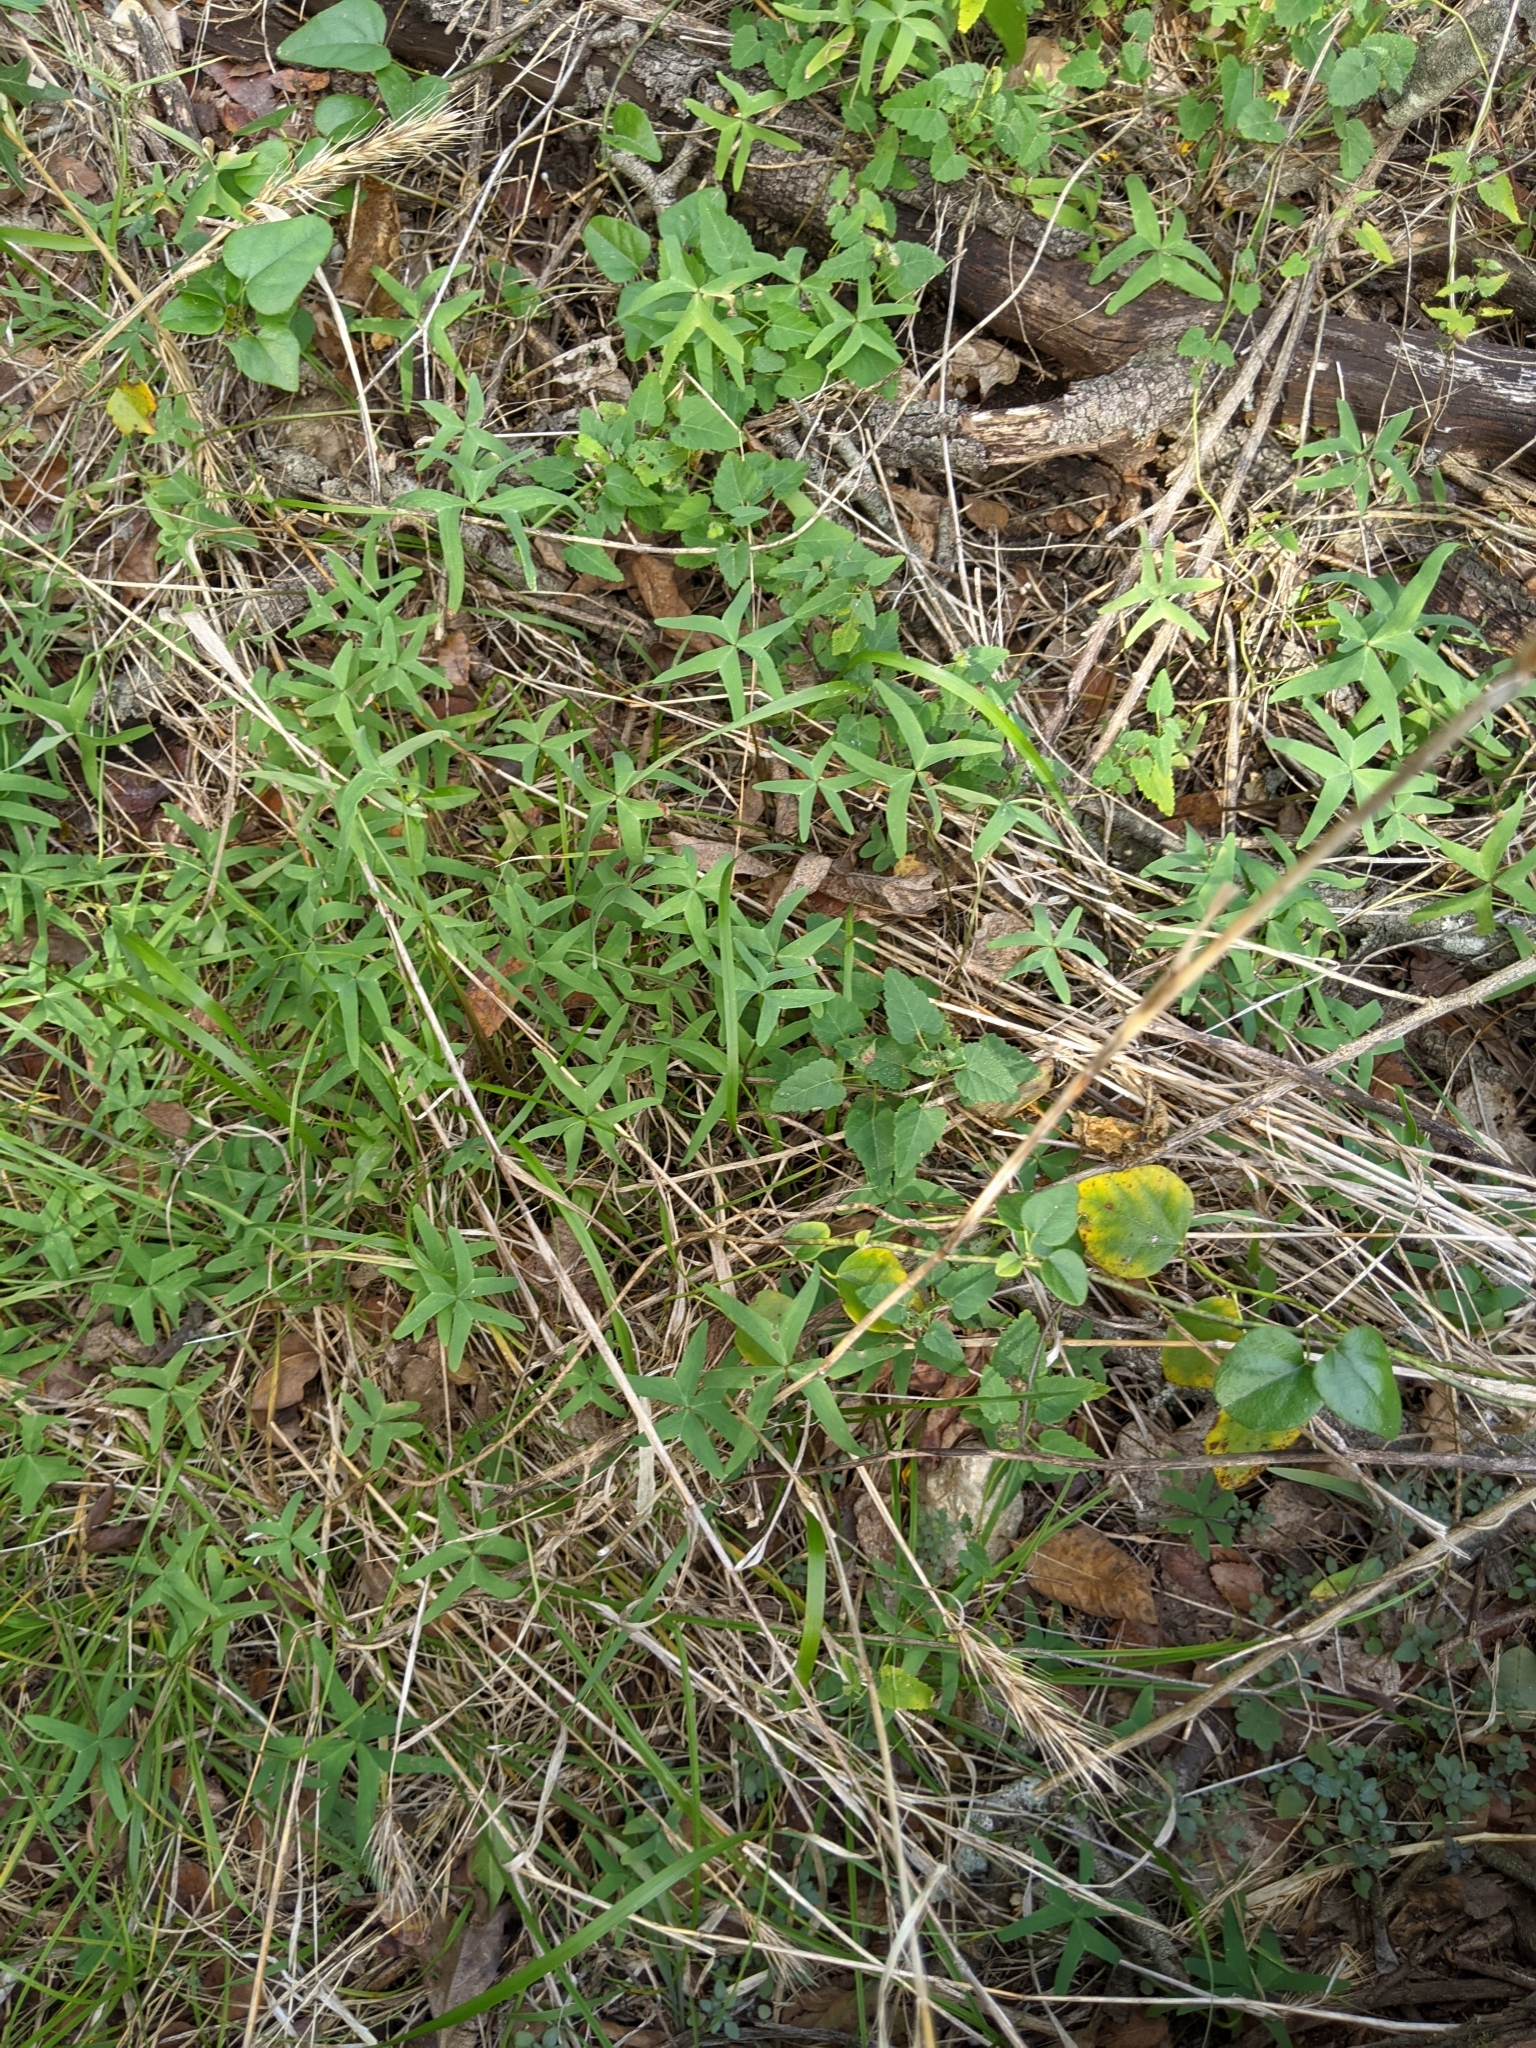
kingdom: Plantae
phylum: Tracheophyta
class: Magnoliopsida
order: Oxalidales
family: Oxalidaceae
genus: Oxalis
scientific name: Oxalis drummondii
